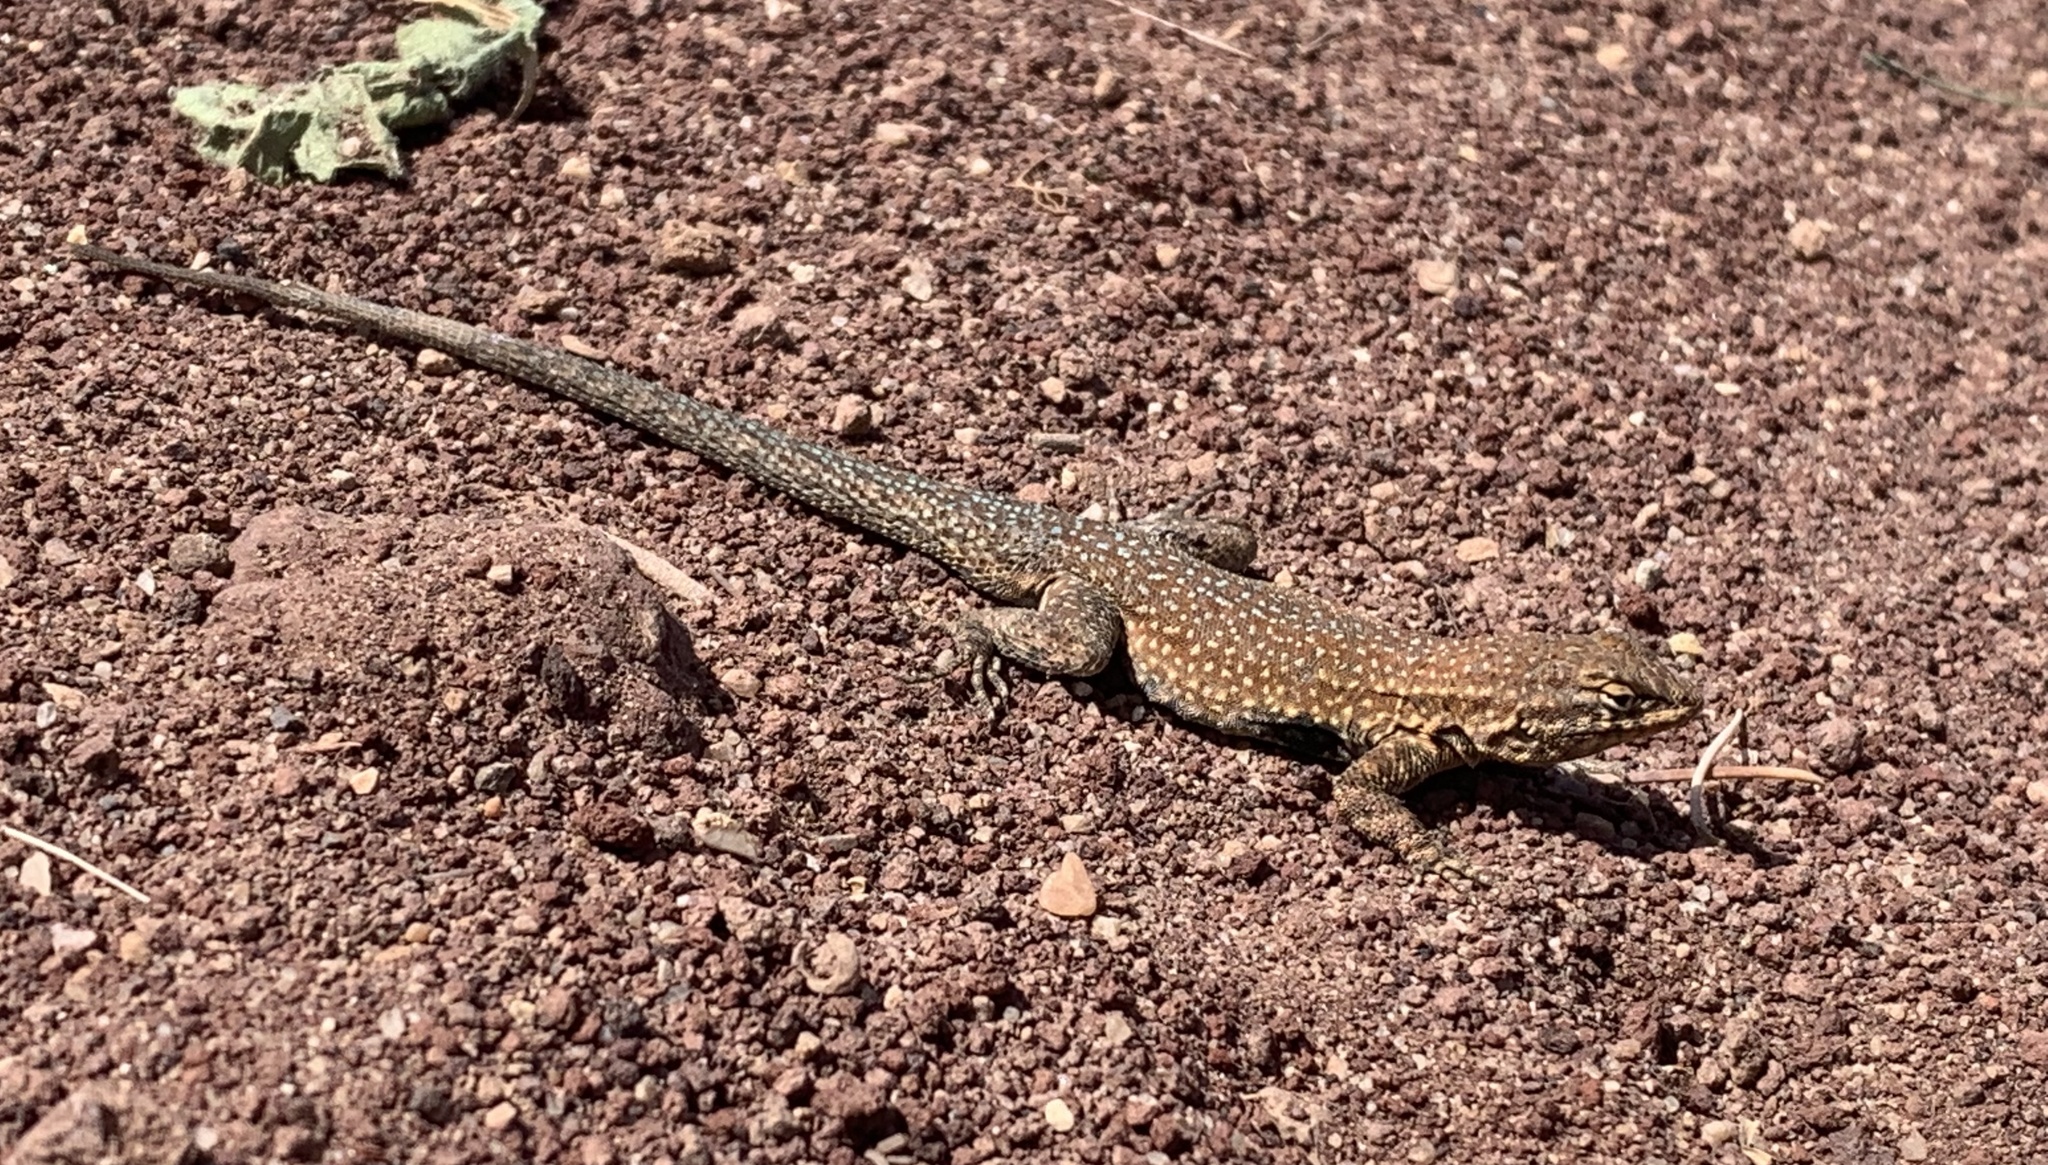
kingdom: Animalia
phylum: Chordata
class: Squamata
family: Phrynosomatidae
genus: Uta
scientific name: Uta stansburiana
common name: Side-blotched lizard
